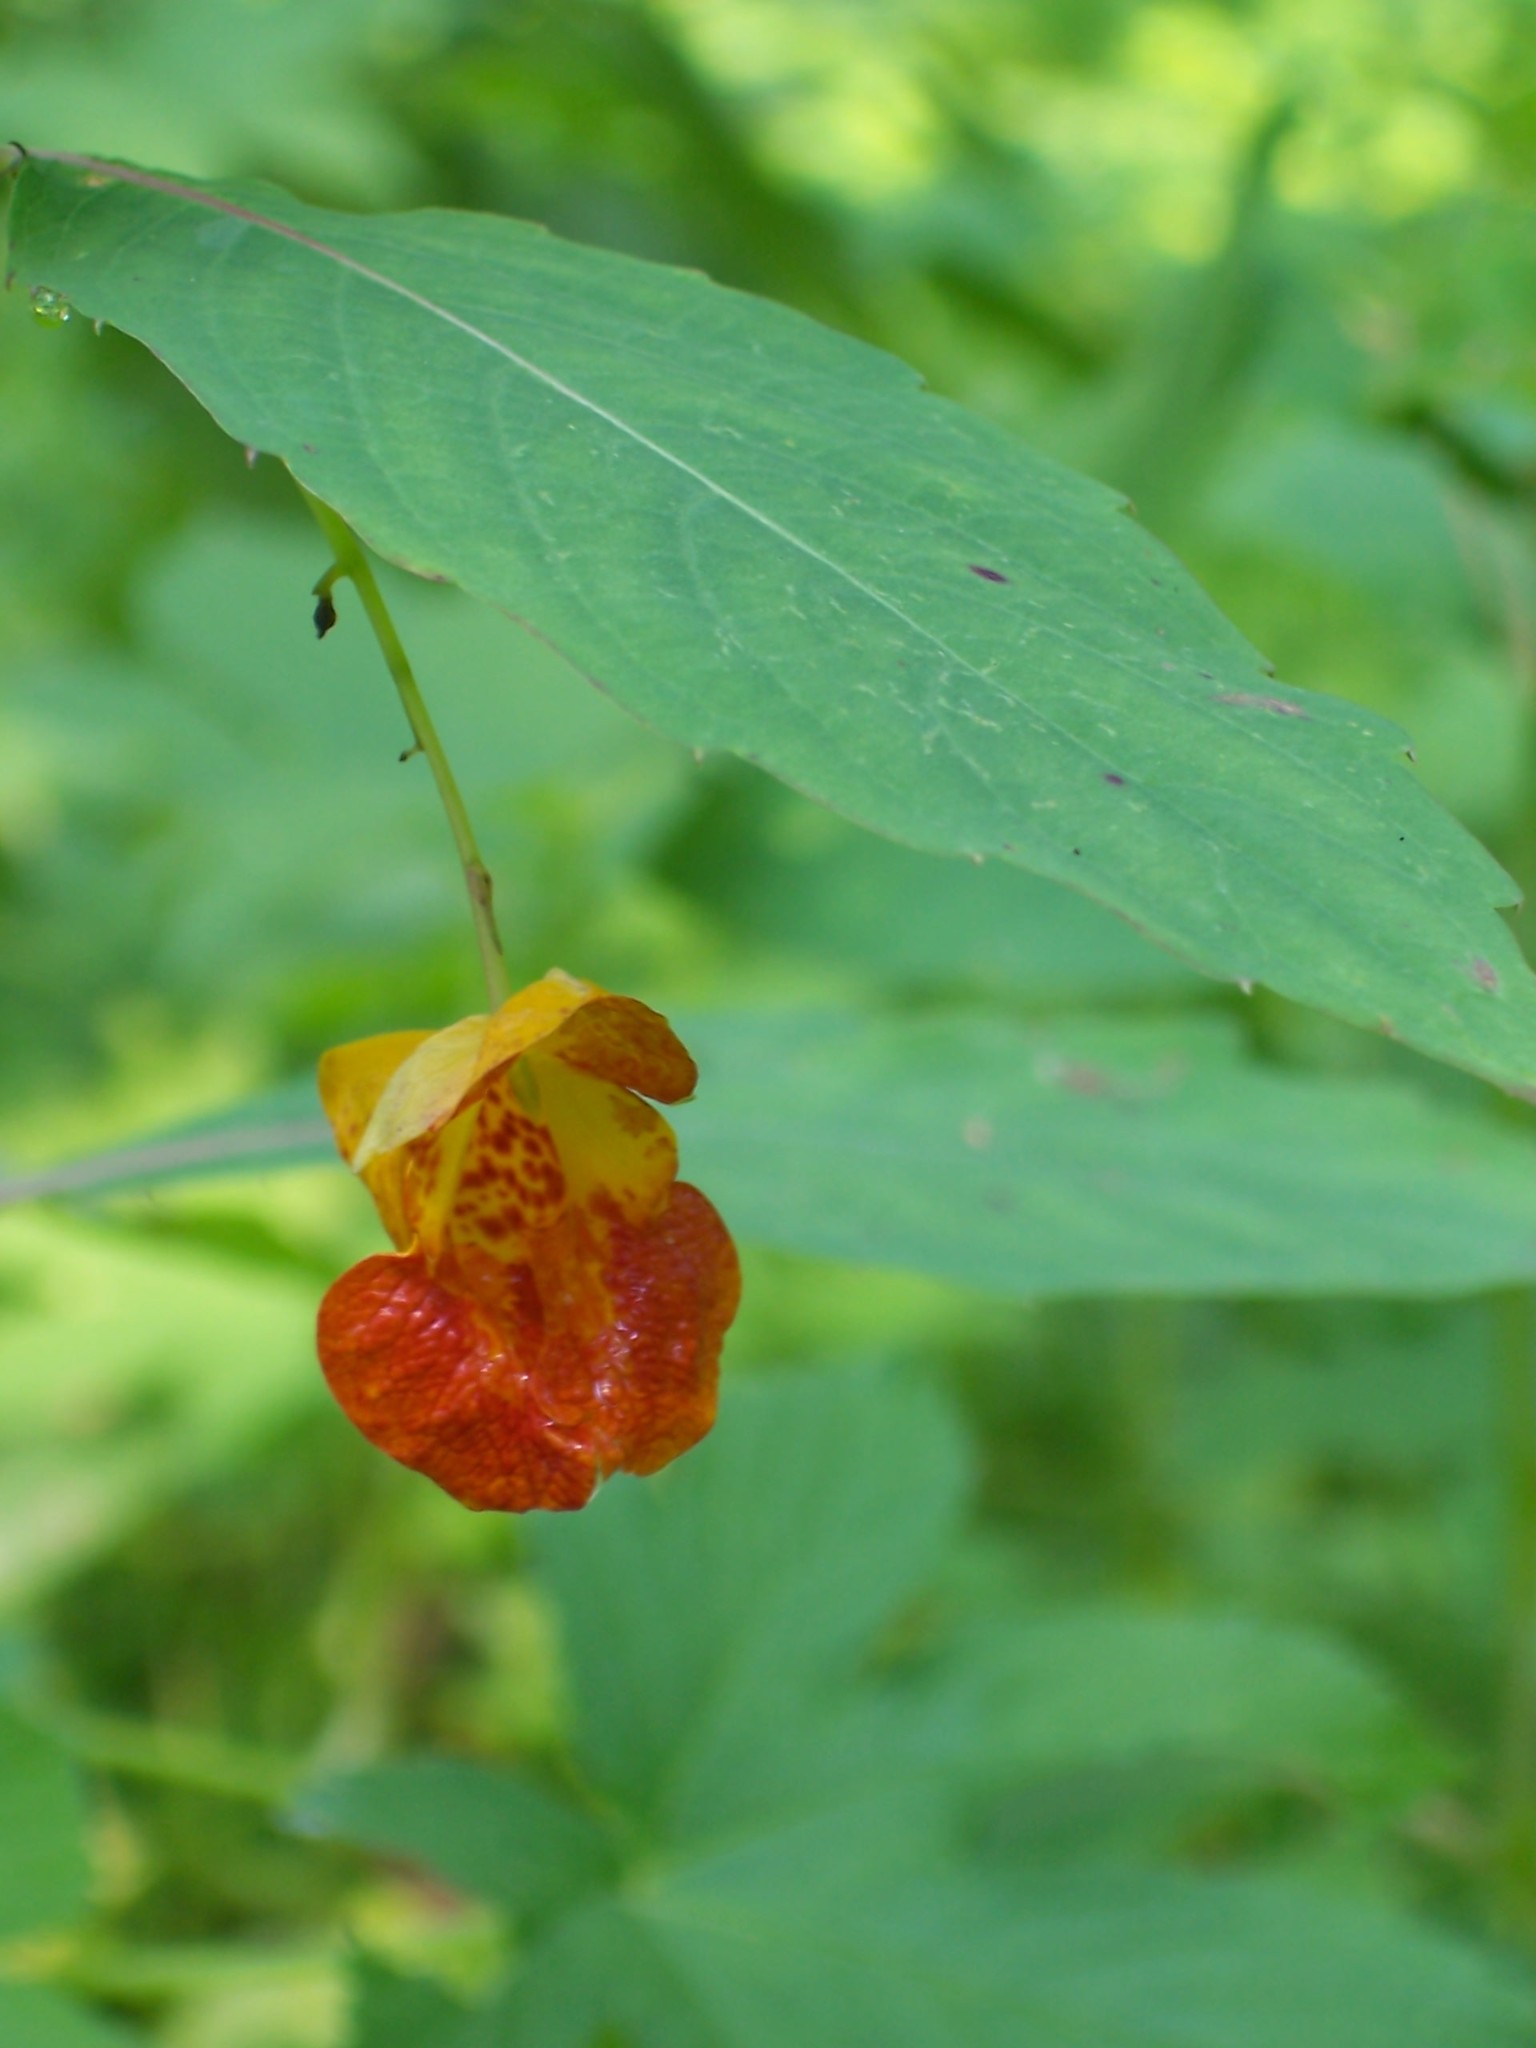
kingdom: Plantae
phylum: Tracheophyta
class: Magnoliopsida
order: Ericales
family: Balsaminaceae
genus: Impatiens
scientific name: Impatiens capensis
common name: Orange balsam
